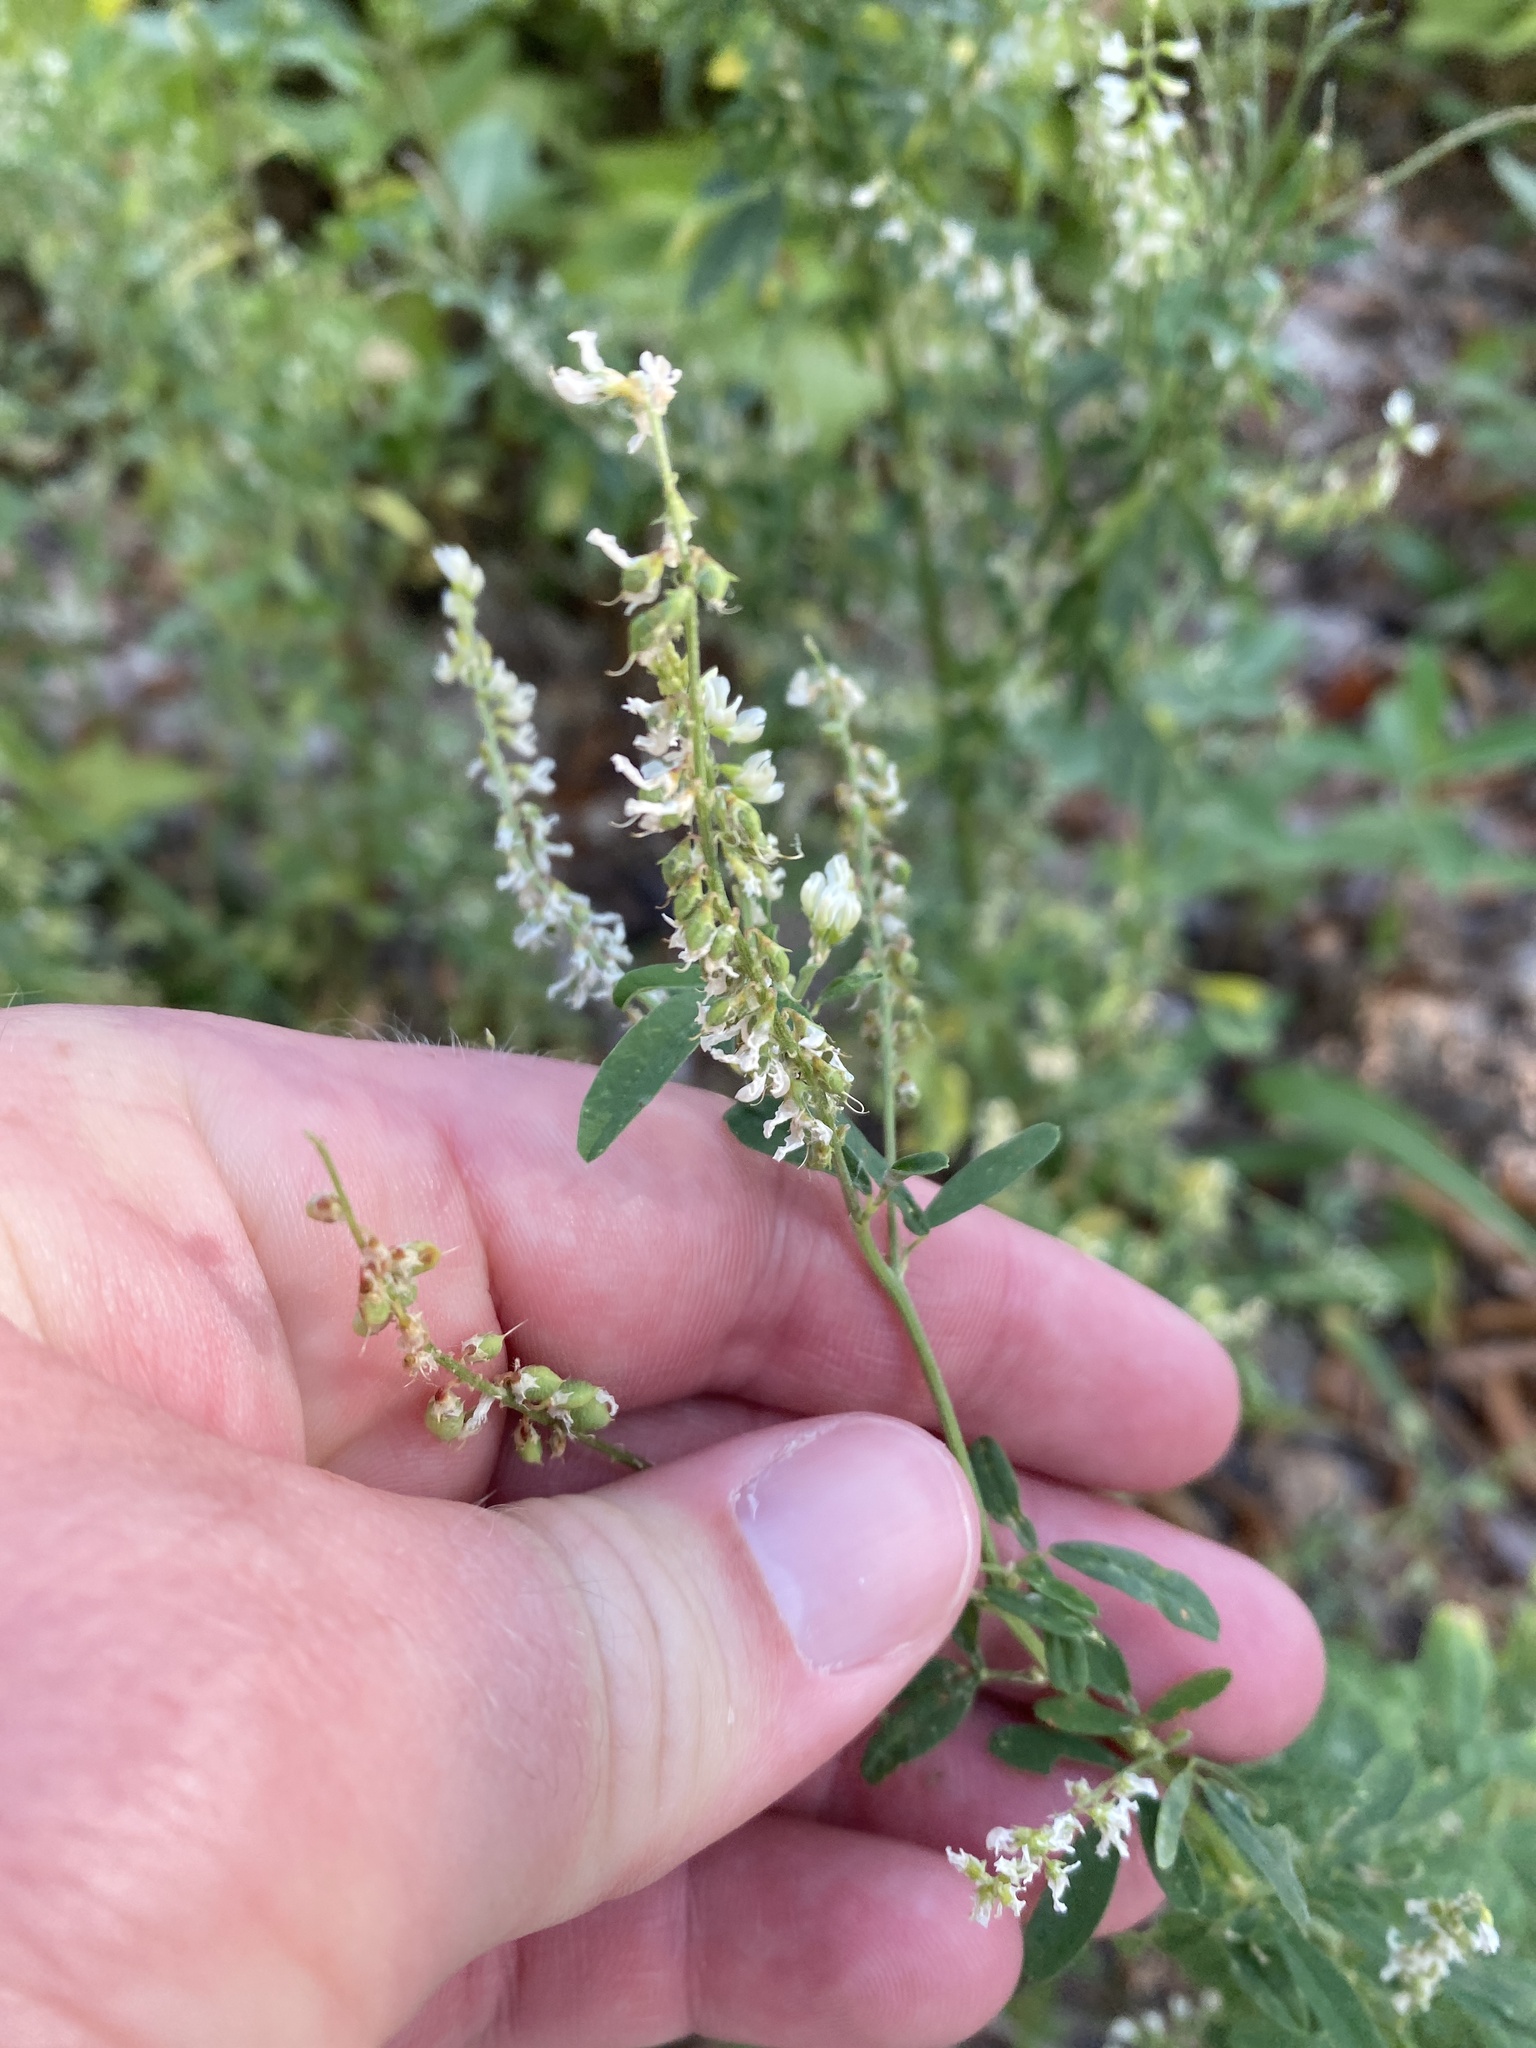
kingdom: Plantae
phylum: Tracheophyta
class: Magnoliopsida
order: Fabales
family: Fabaceae
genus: Melilotus
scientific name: Melilotus albus
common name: White melilot
